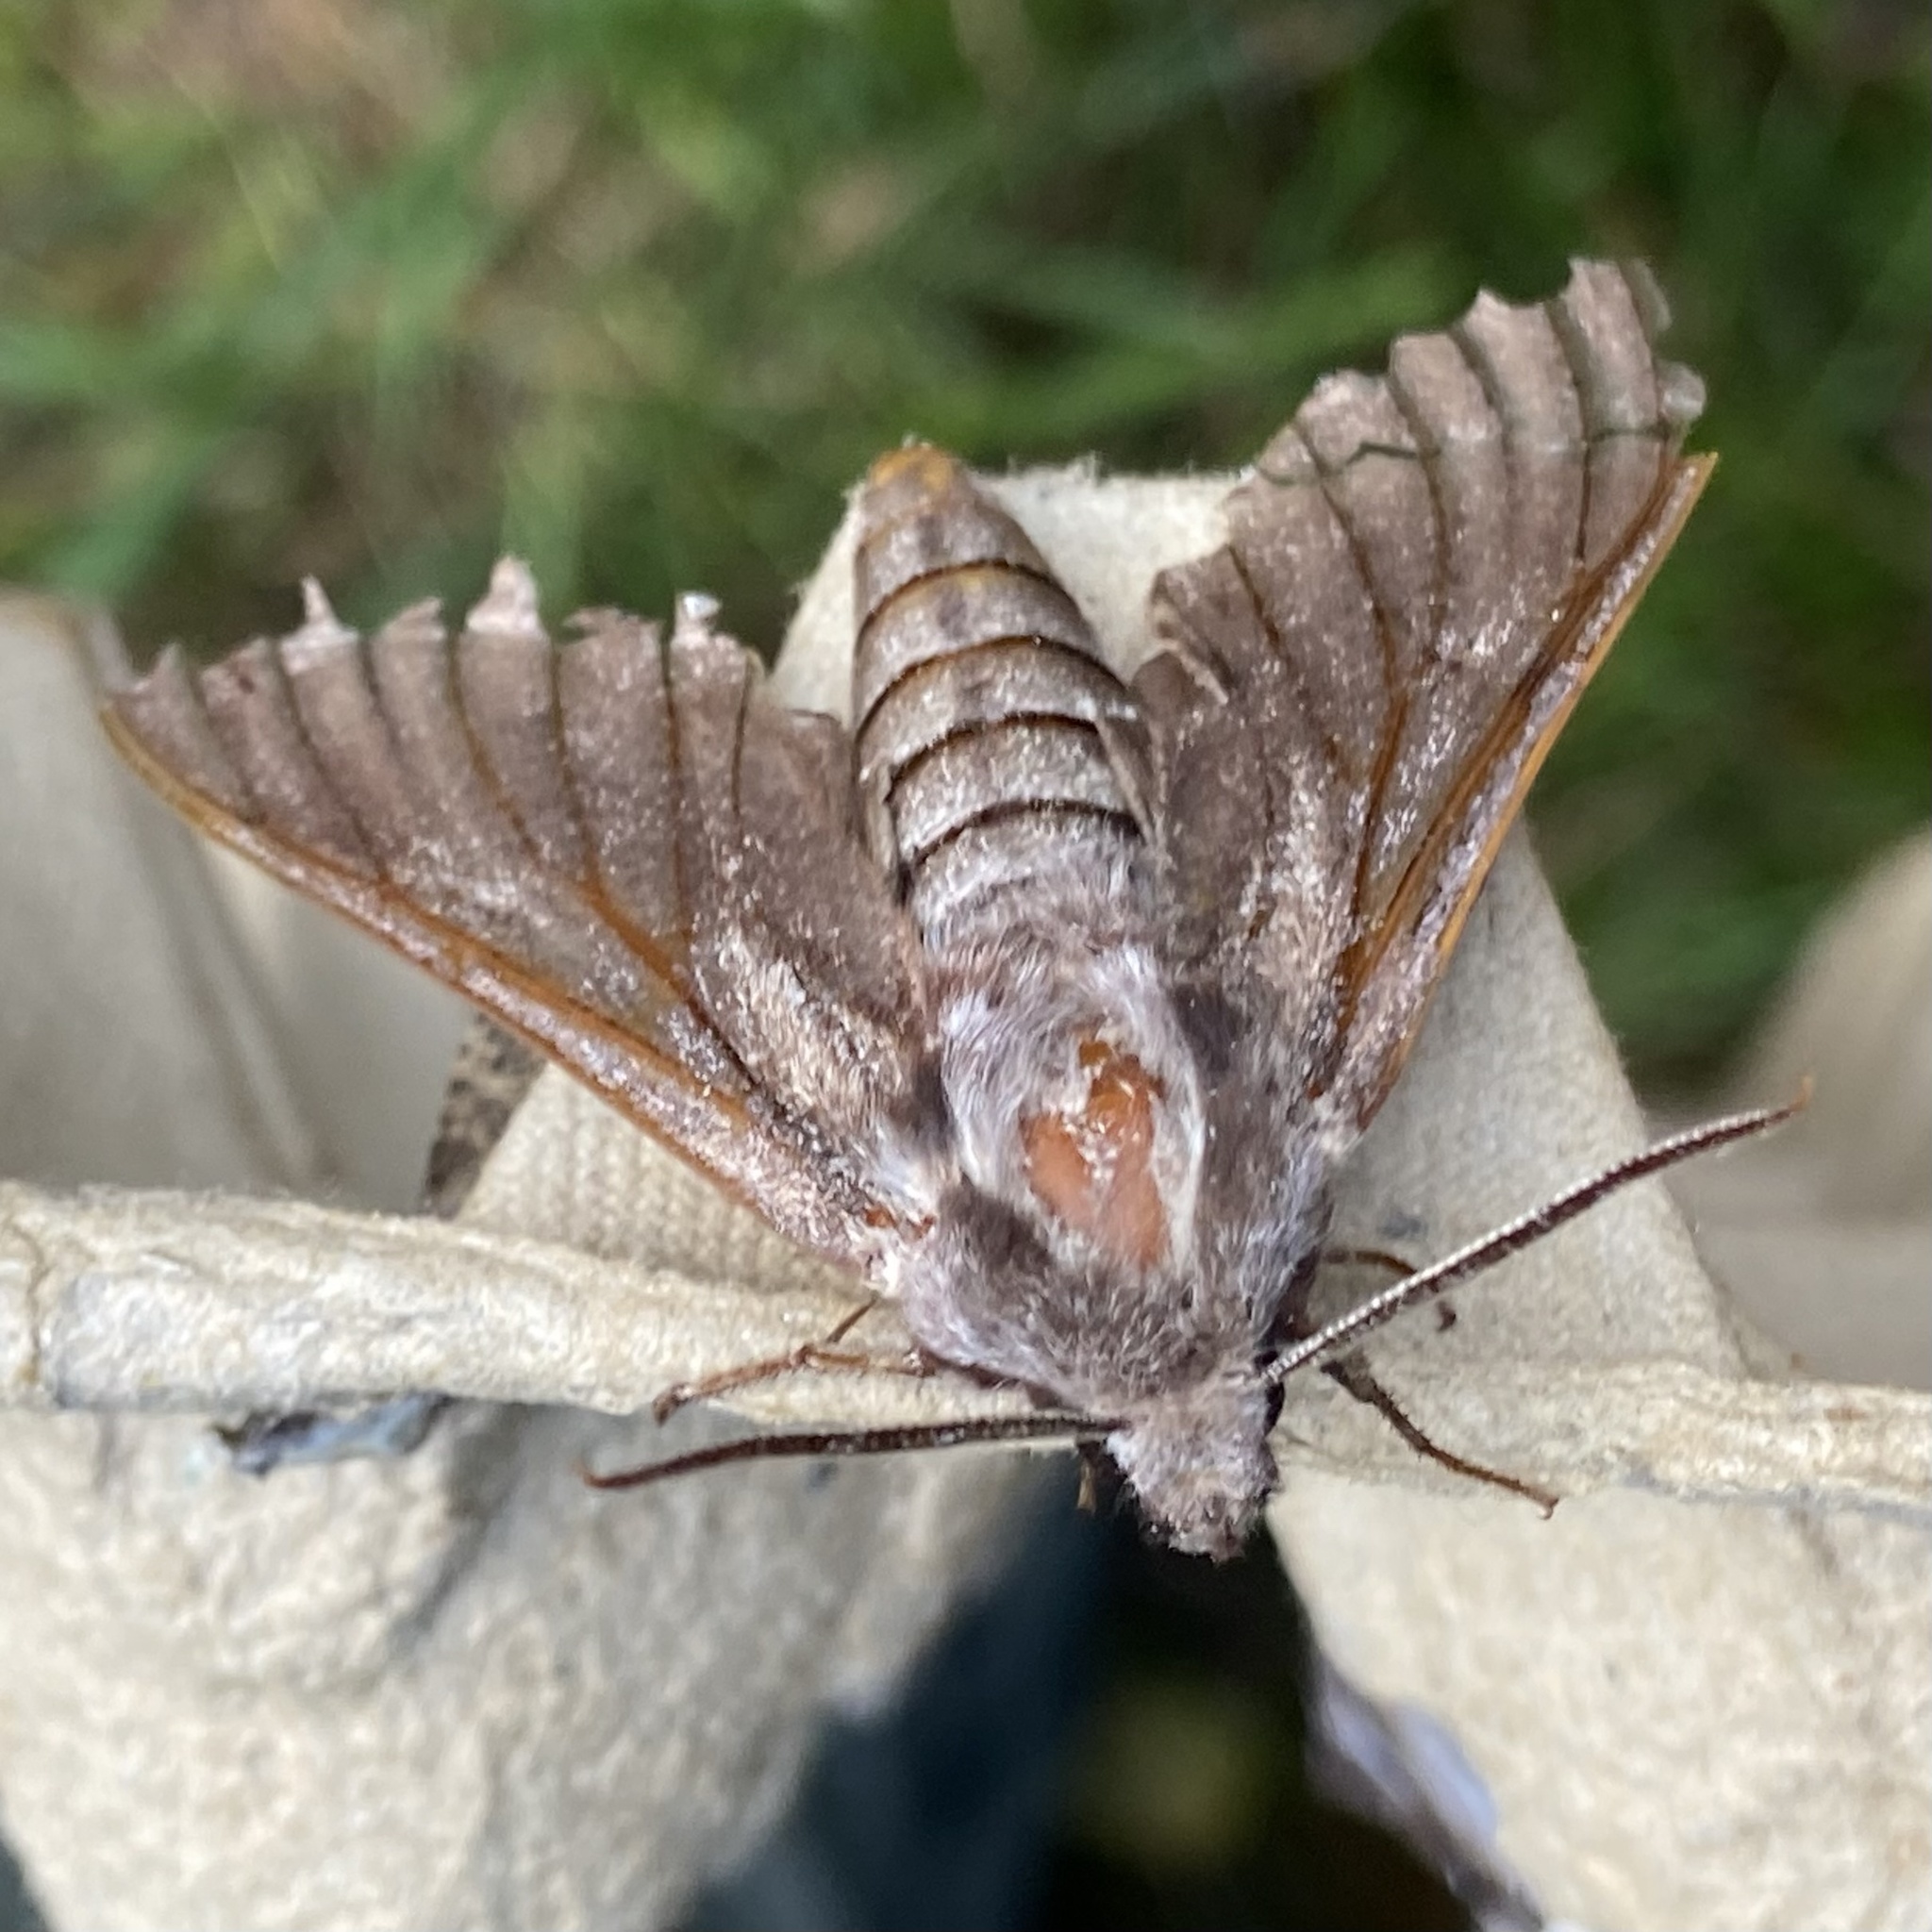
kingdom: Animalia
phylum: Arthropoda
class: Insecta
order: Lepidoptera
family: Sphingidae
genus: Sphinx
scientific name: Sphinx pinastri
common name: Pine hawk-moth
